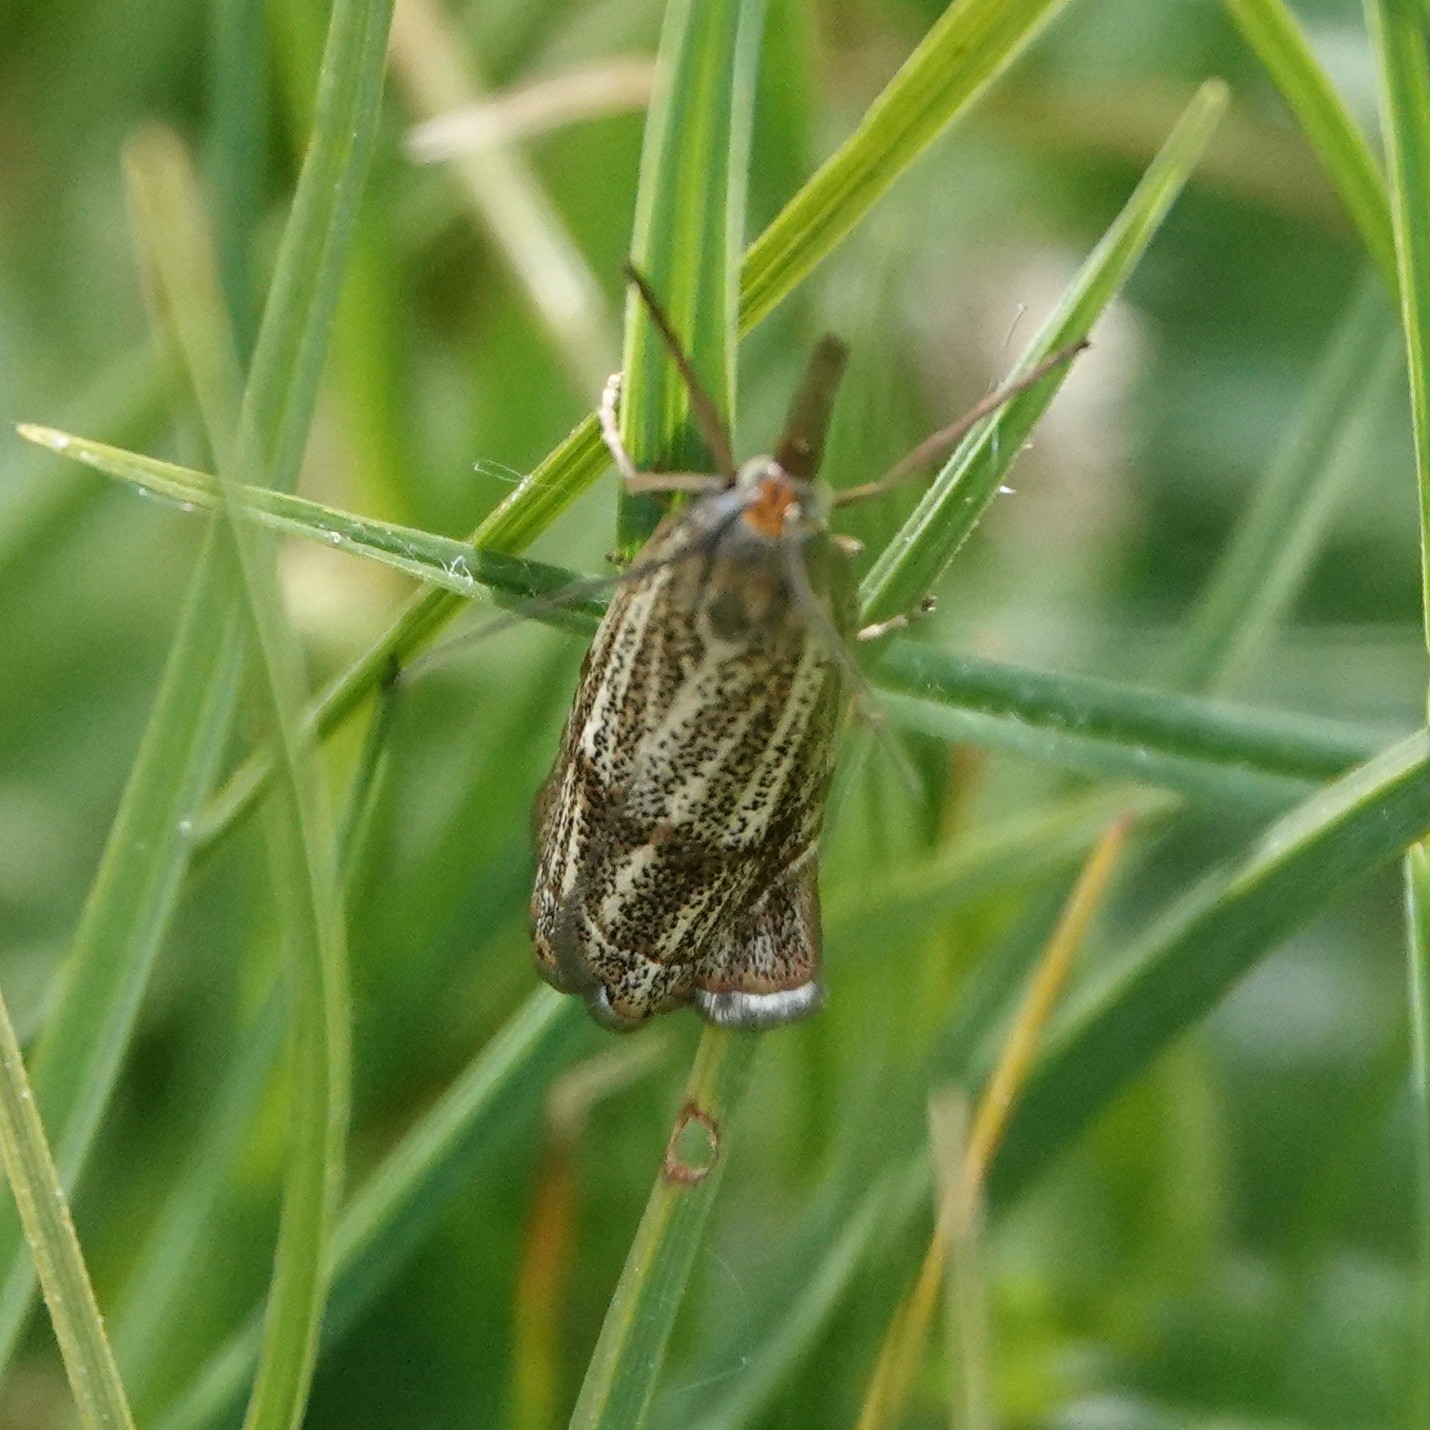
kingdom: Animalia
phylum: Arthropoda
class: Insecta
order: Lepidoptera
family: Crambidae
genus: Thisanotia
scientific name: Thisanotia chrysonuchella
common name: Powdered grass-veneer
